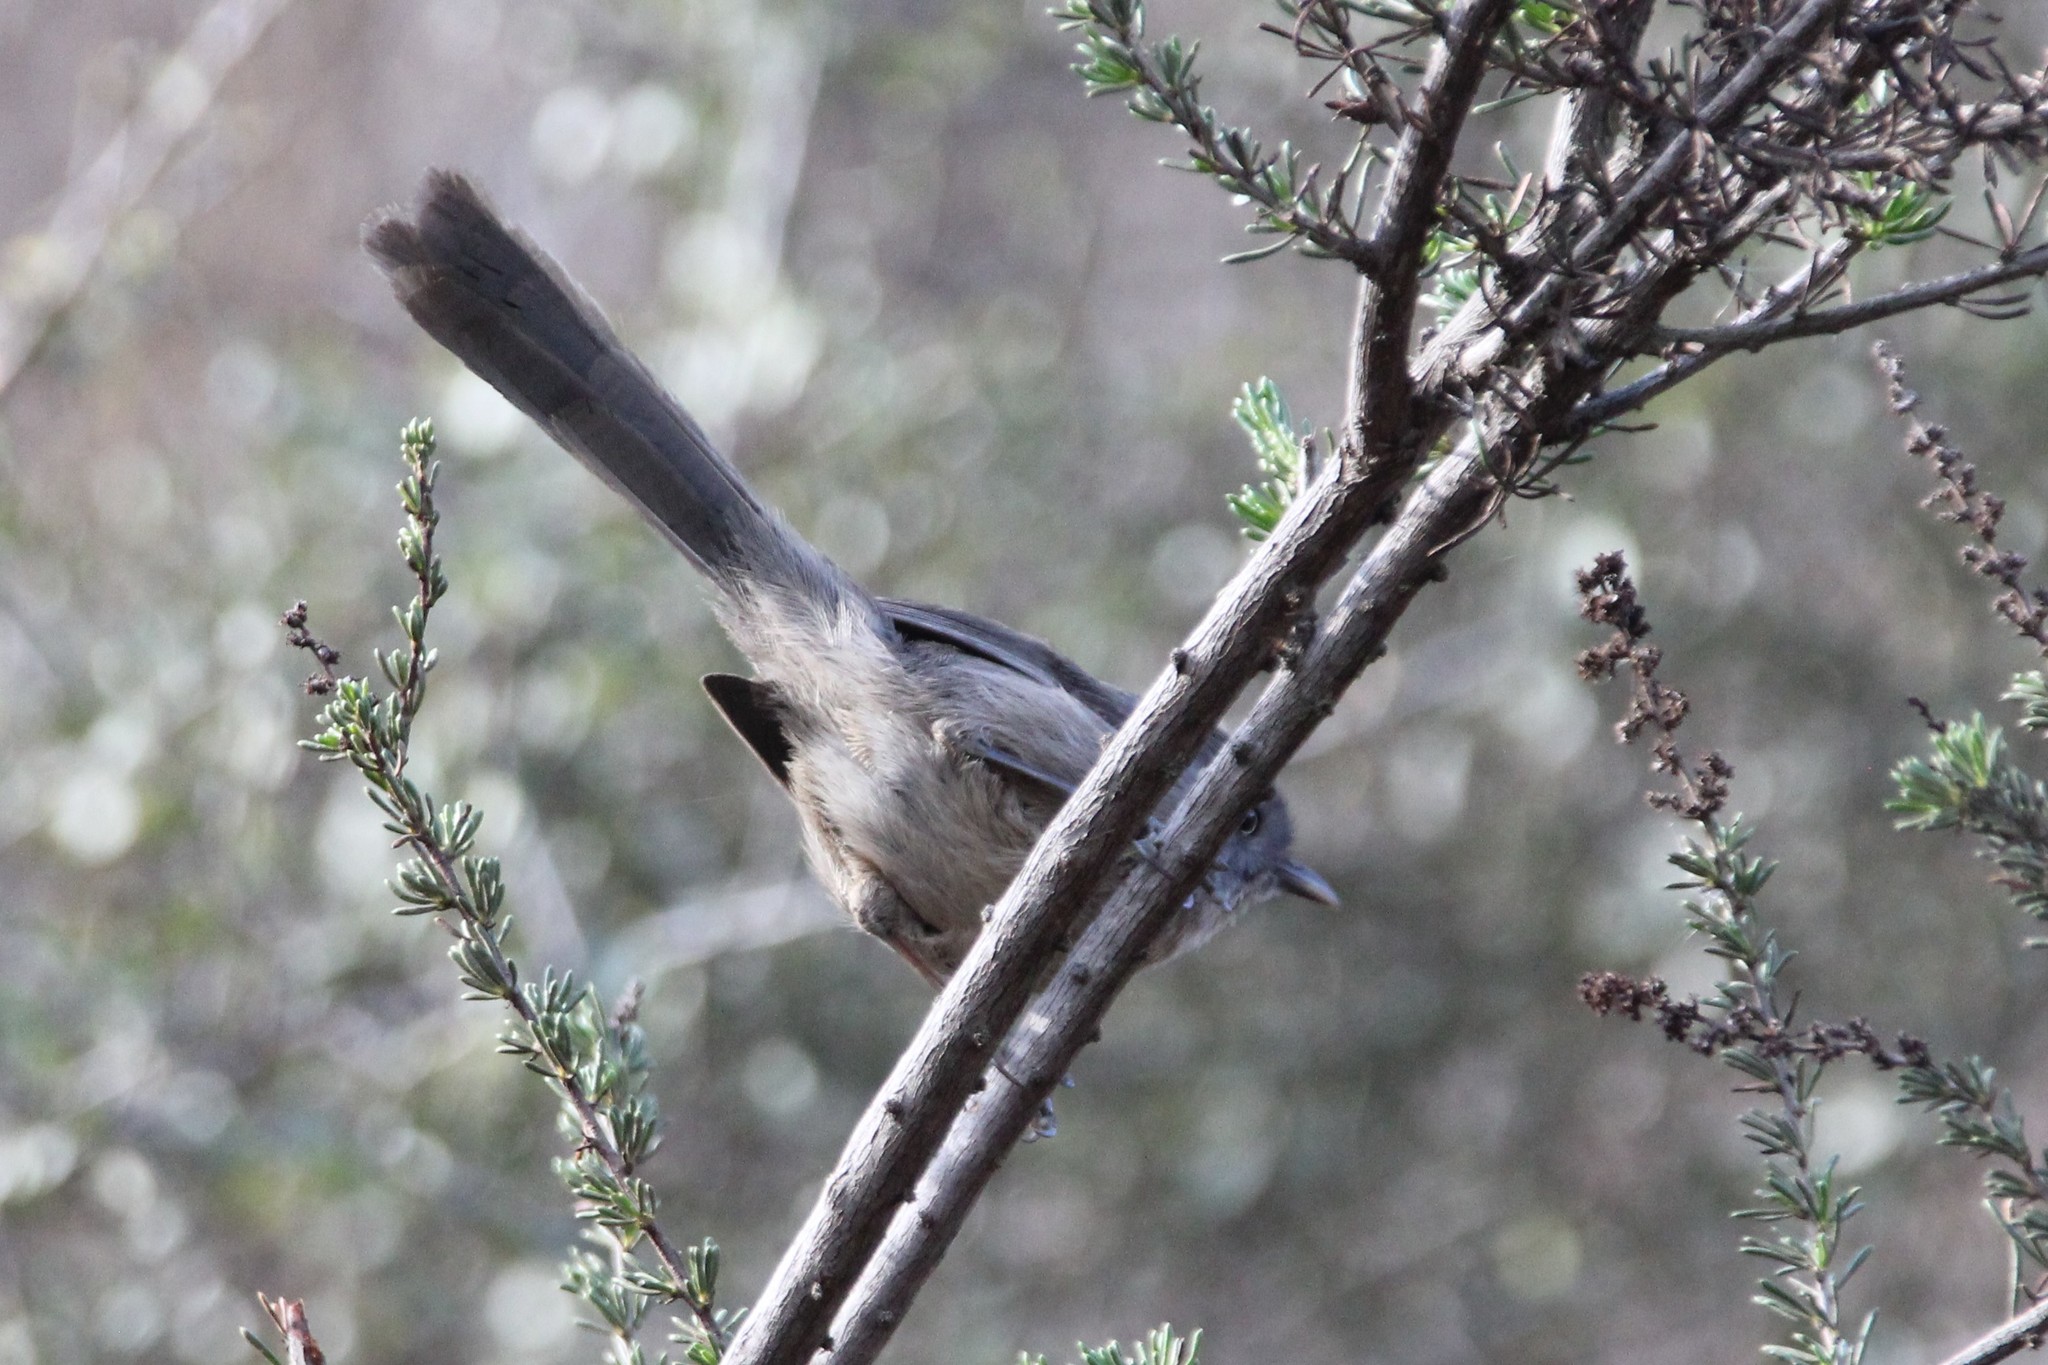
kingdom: Animalia
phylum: Chordata
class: Aves
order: Passeriformes
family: Sylviidae
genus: Chamaea
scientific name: Chamaea fasciata
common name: Wrentit
